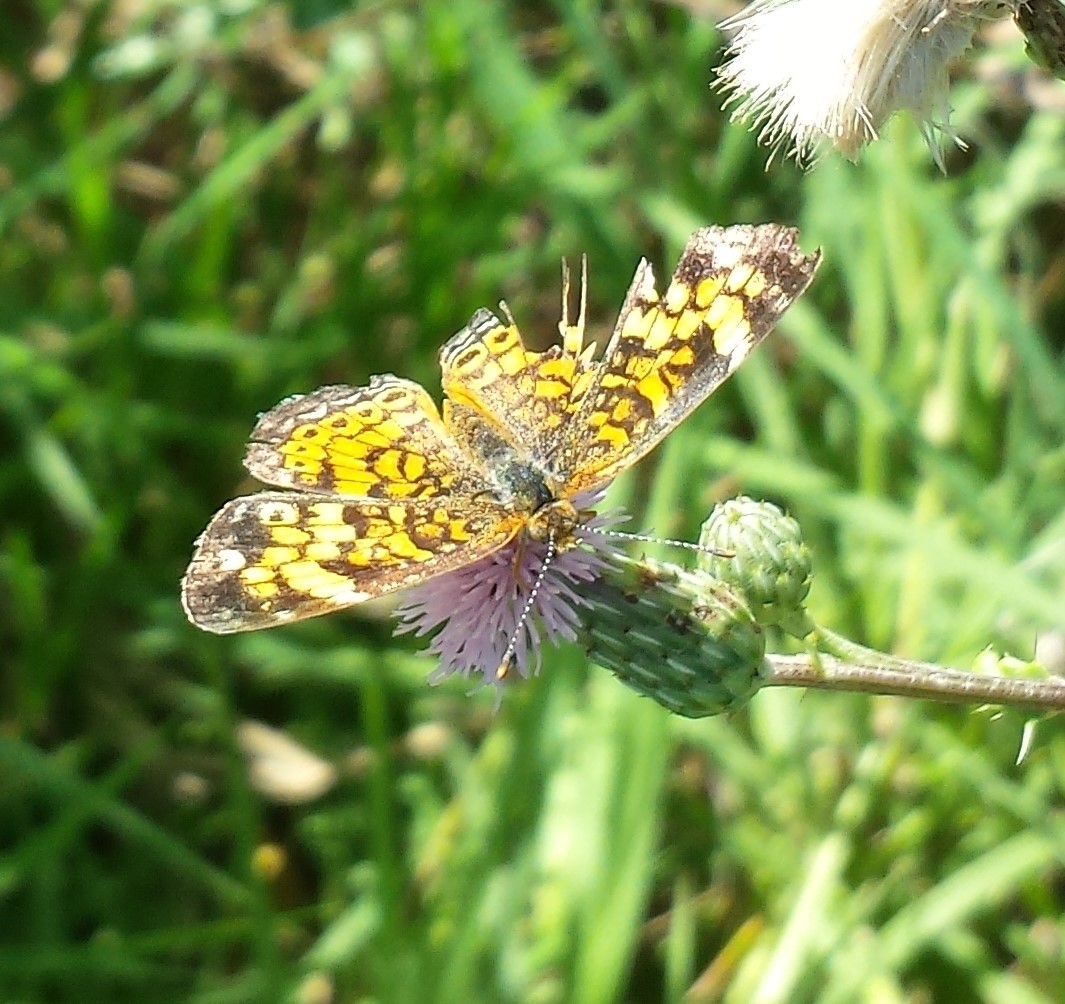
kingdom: Animalia
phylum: Arthropoda
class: Insecta
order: Lepidoptera
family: Nymphalidae
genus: Phyciodes
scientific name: Phyciodes tharos
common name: Pearl crescent
